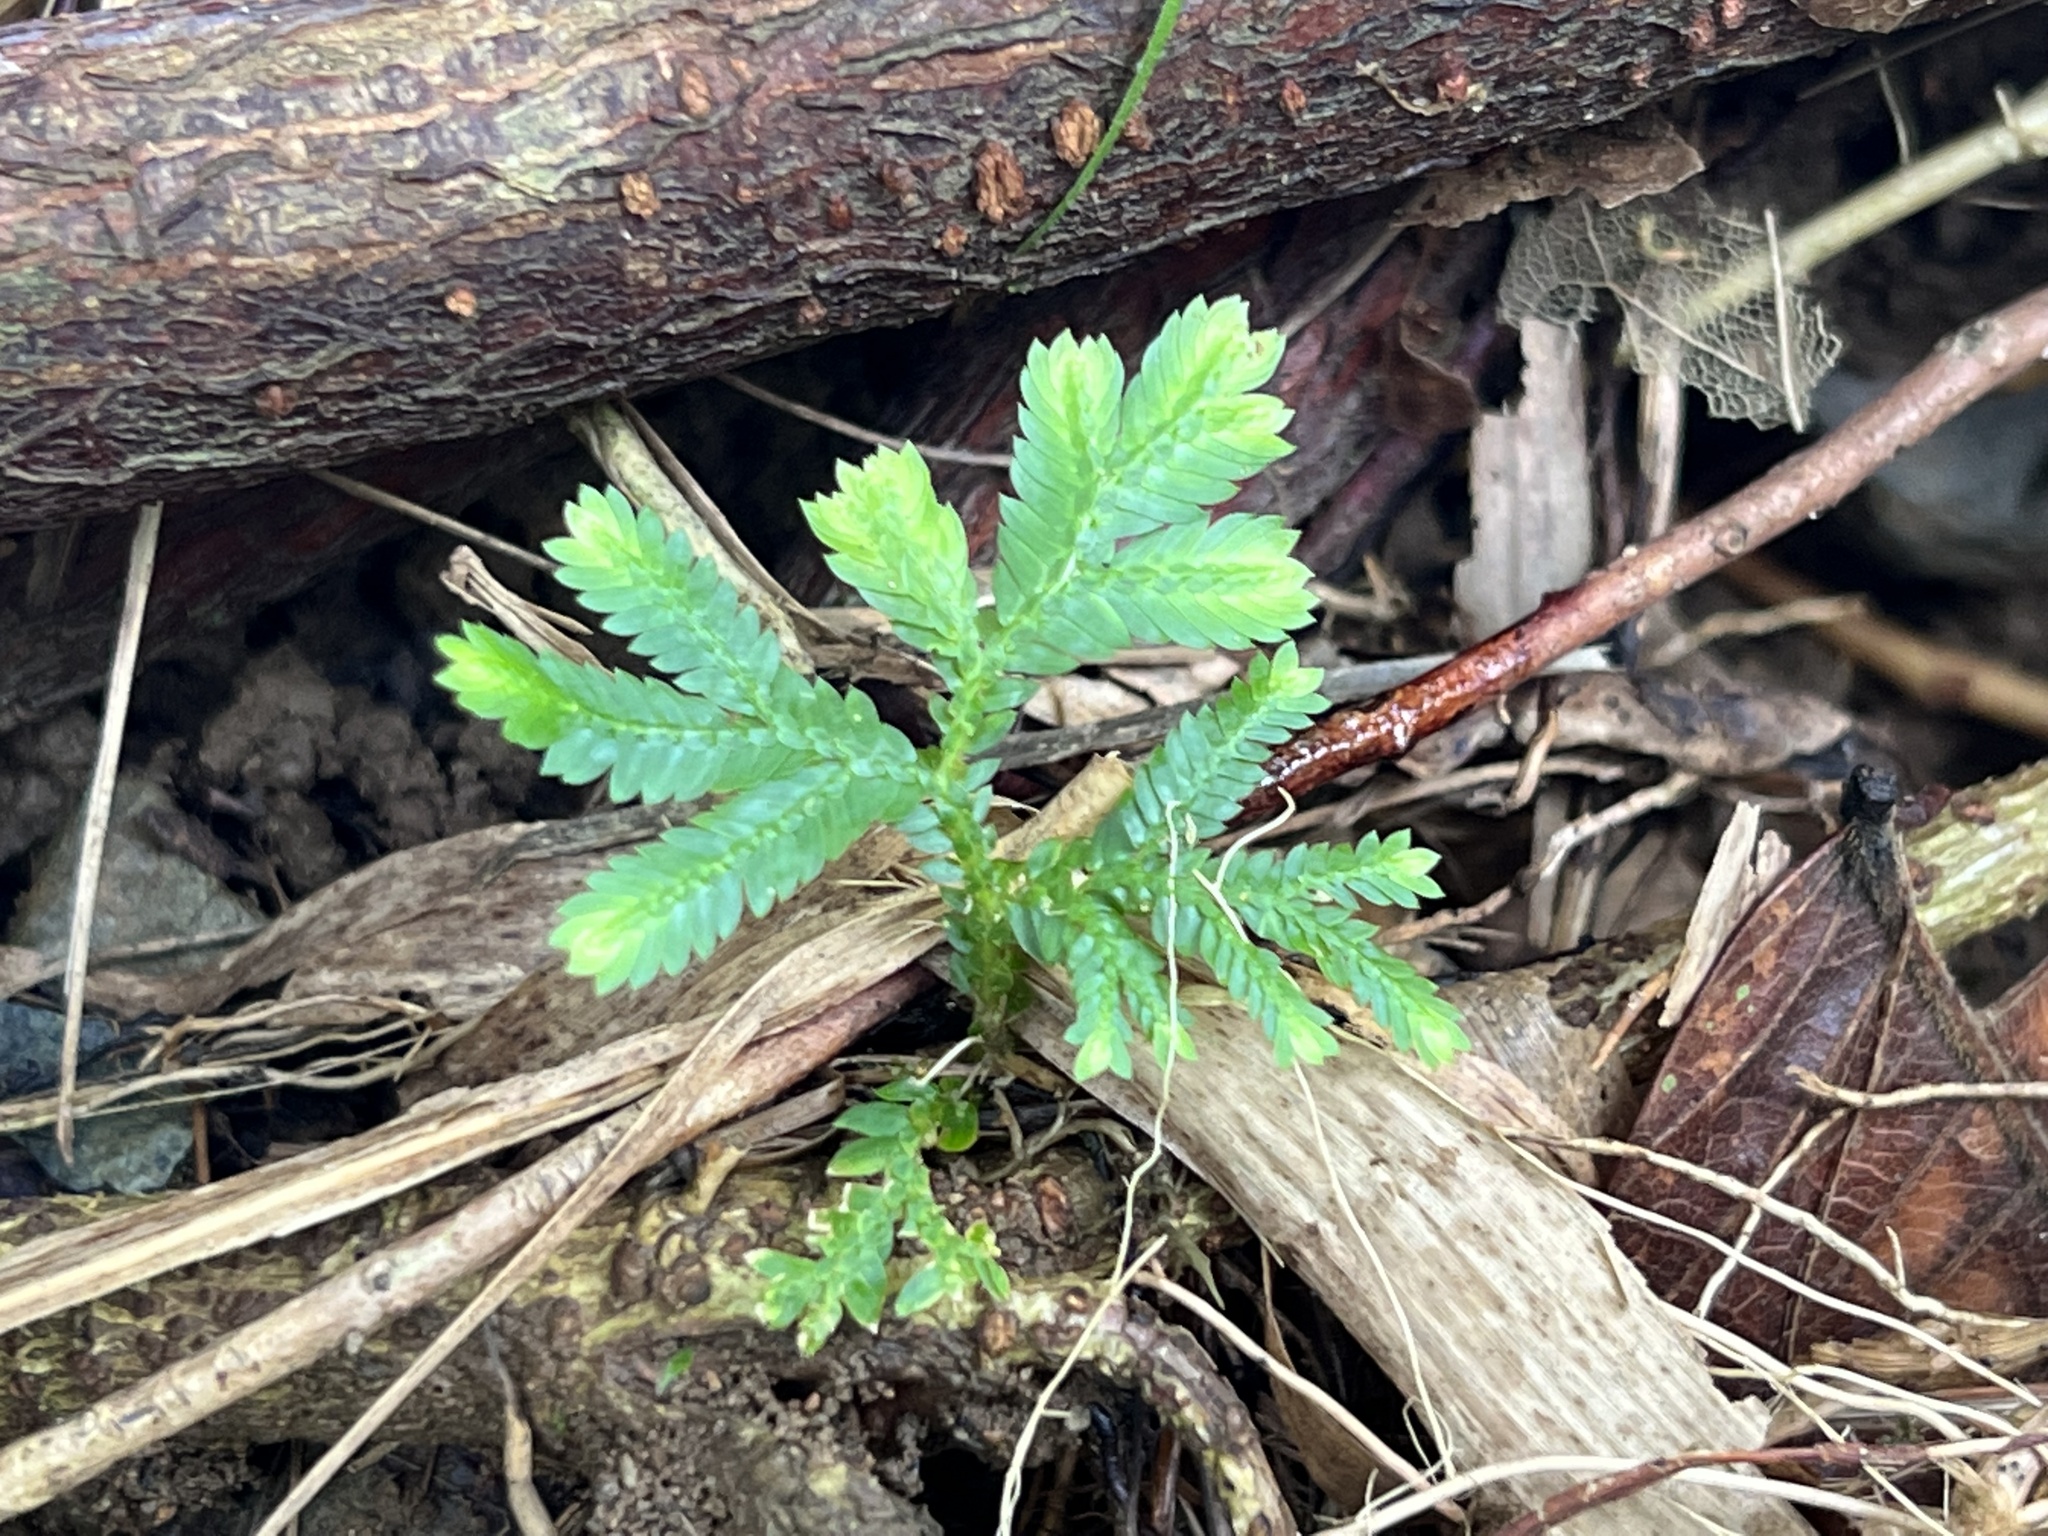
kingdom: Plantae
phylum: Tracheophyta
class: Lycopodiopsida
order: Selaginellales
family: Selaginellaceae
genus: Selaginella
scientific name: Selaginella willdenowii
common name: Willdenow's spikemoss
